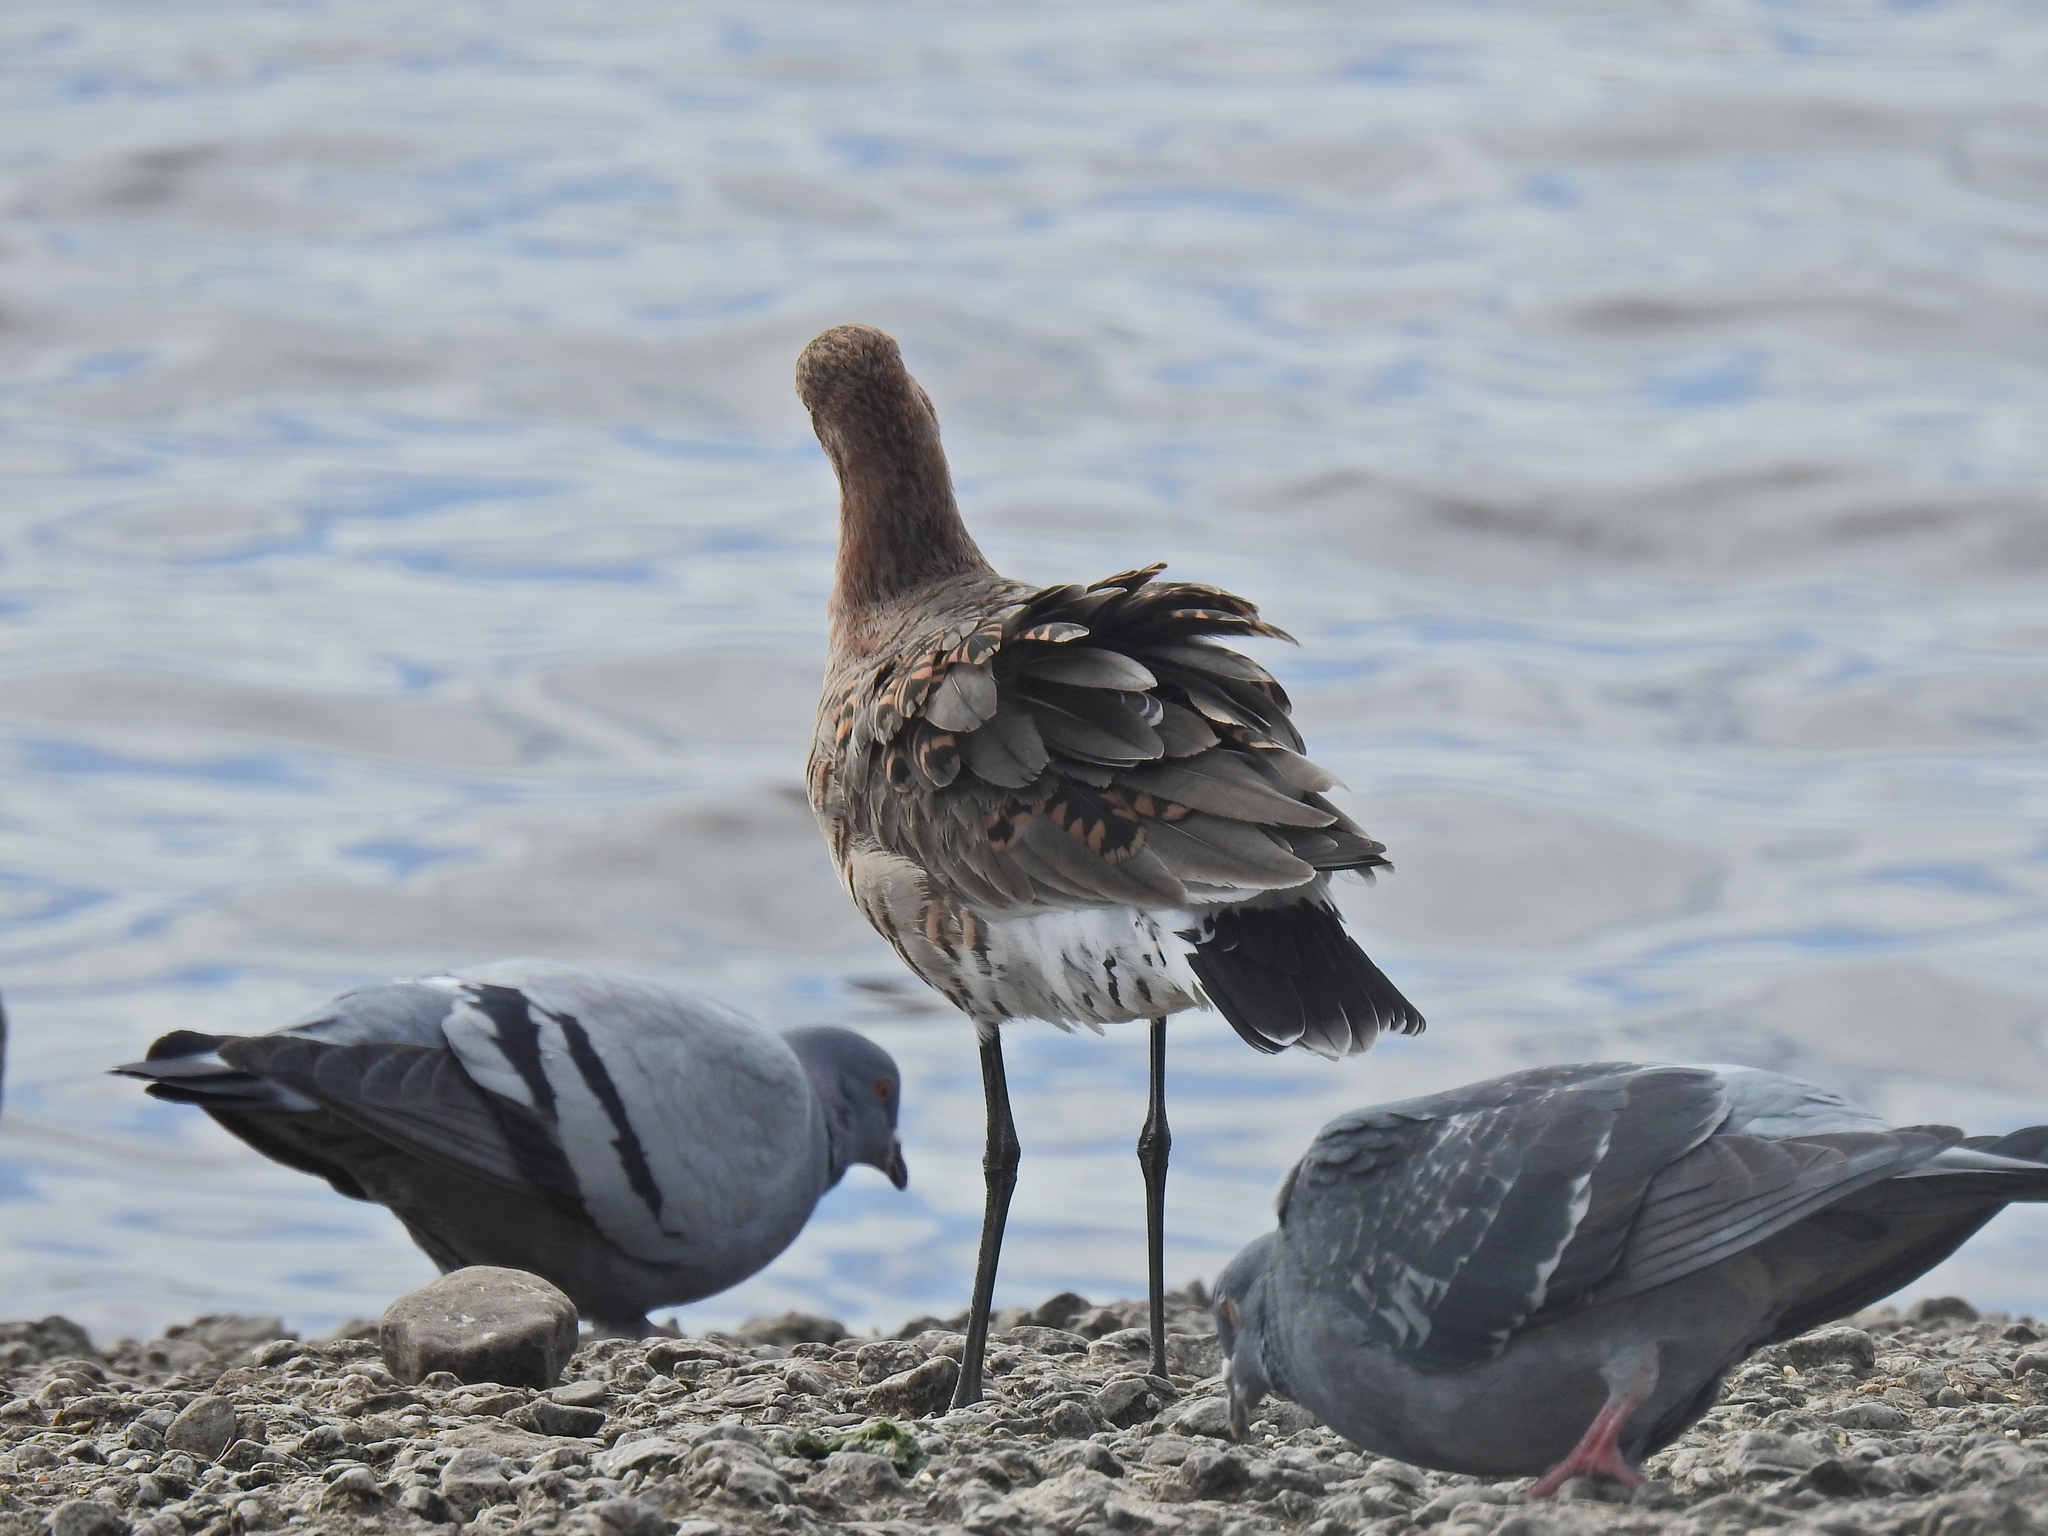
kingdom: Animalia
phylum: Chordata
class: Aves
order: Columbiformes
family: Columbidae
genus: Columba
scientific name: Columba livia
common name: Rock pigeon
